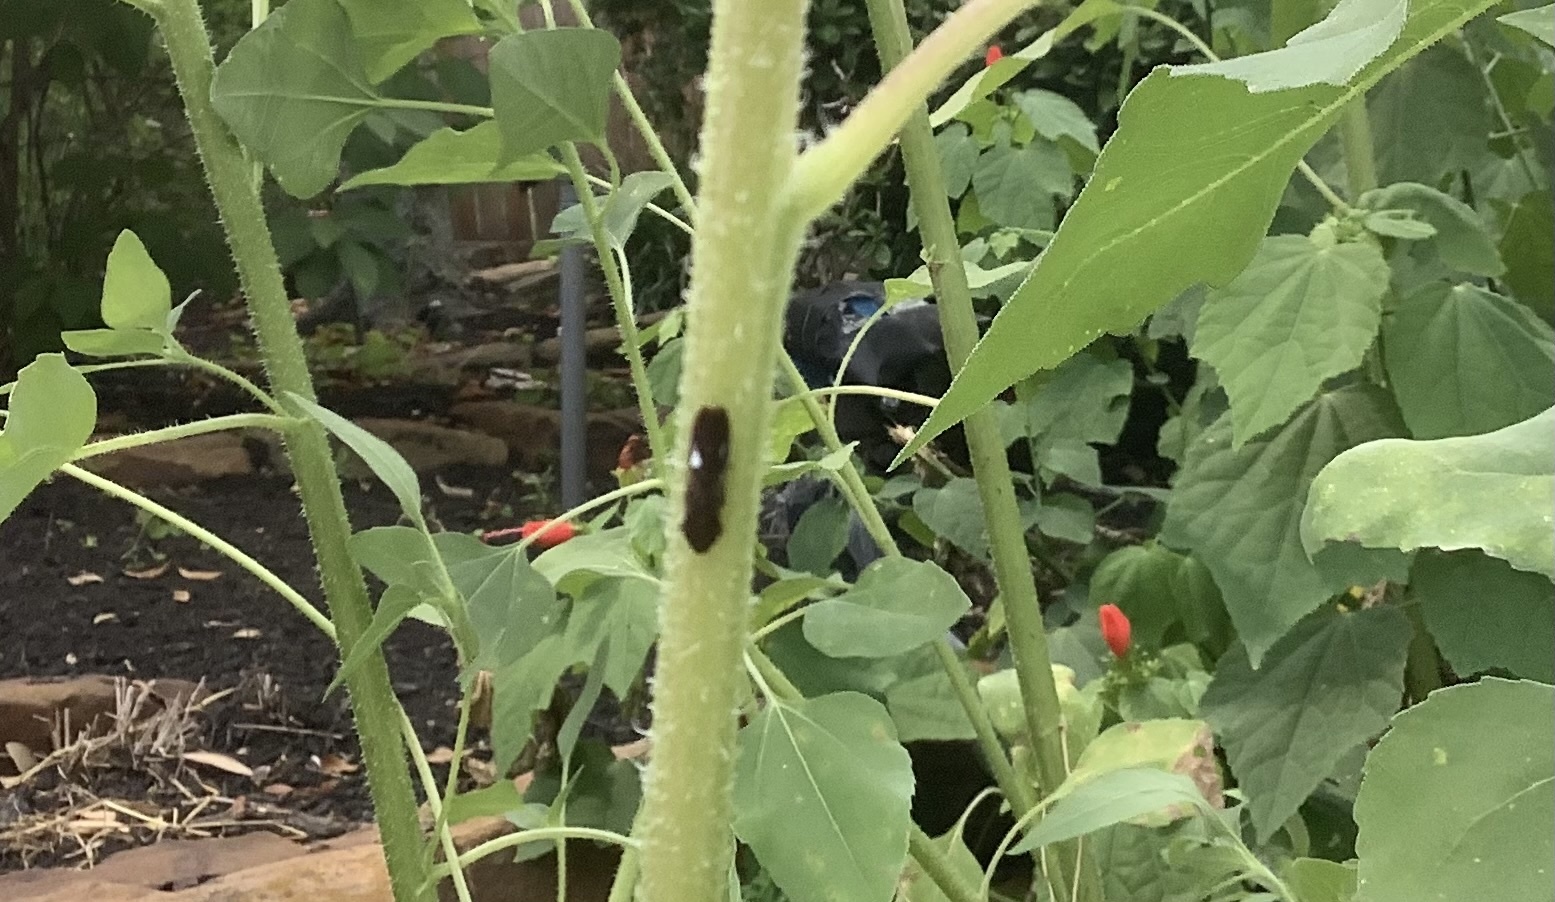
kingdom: Animalia
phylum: Arthropoda
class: Insecta
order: Hemiptera
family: Cicadellidae
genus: Homalodisca
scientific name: Homalodisca vitripennis
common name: Glassy-winged sharpshooter
